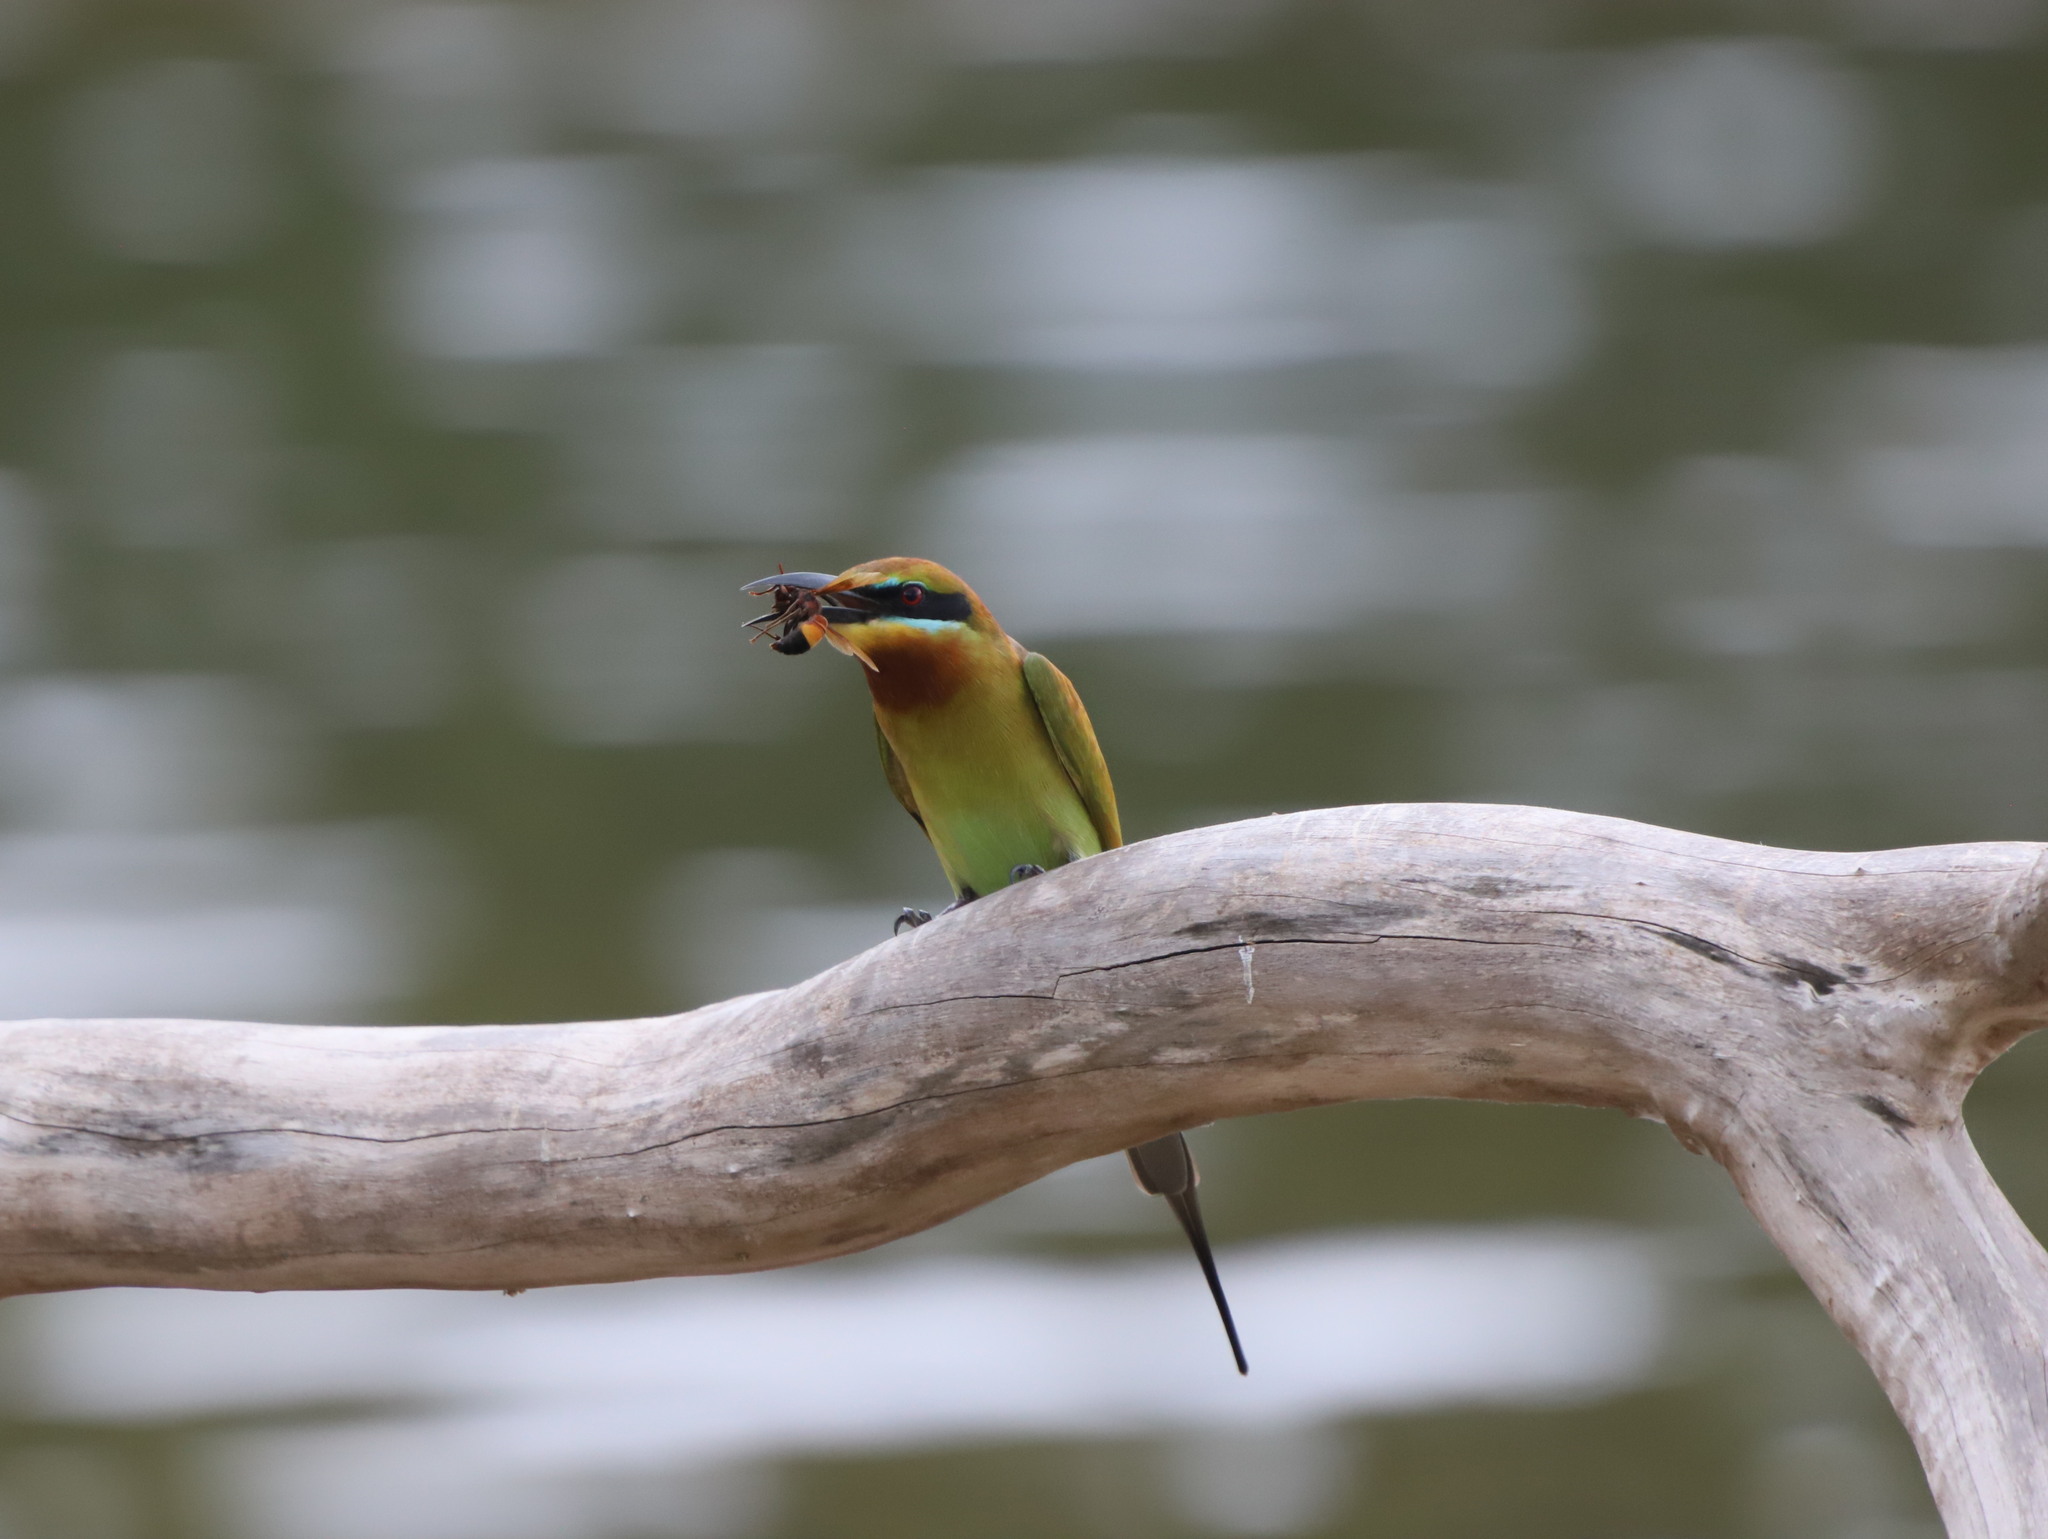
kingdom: Animalia
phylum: Chordata
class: Aves
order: Coraciiformes
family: Meropidae
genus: Merops
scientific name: Merops philippinus
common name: Blue-tailed bee-eater
